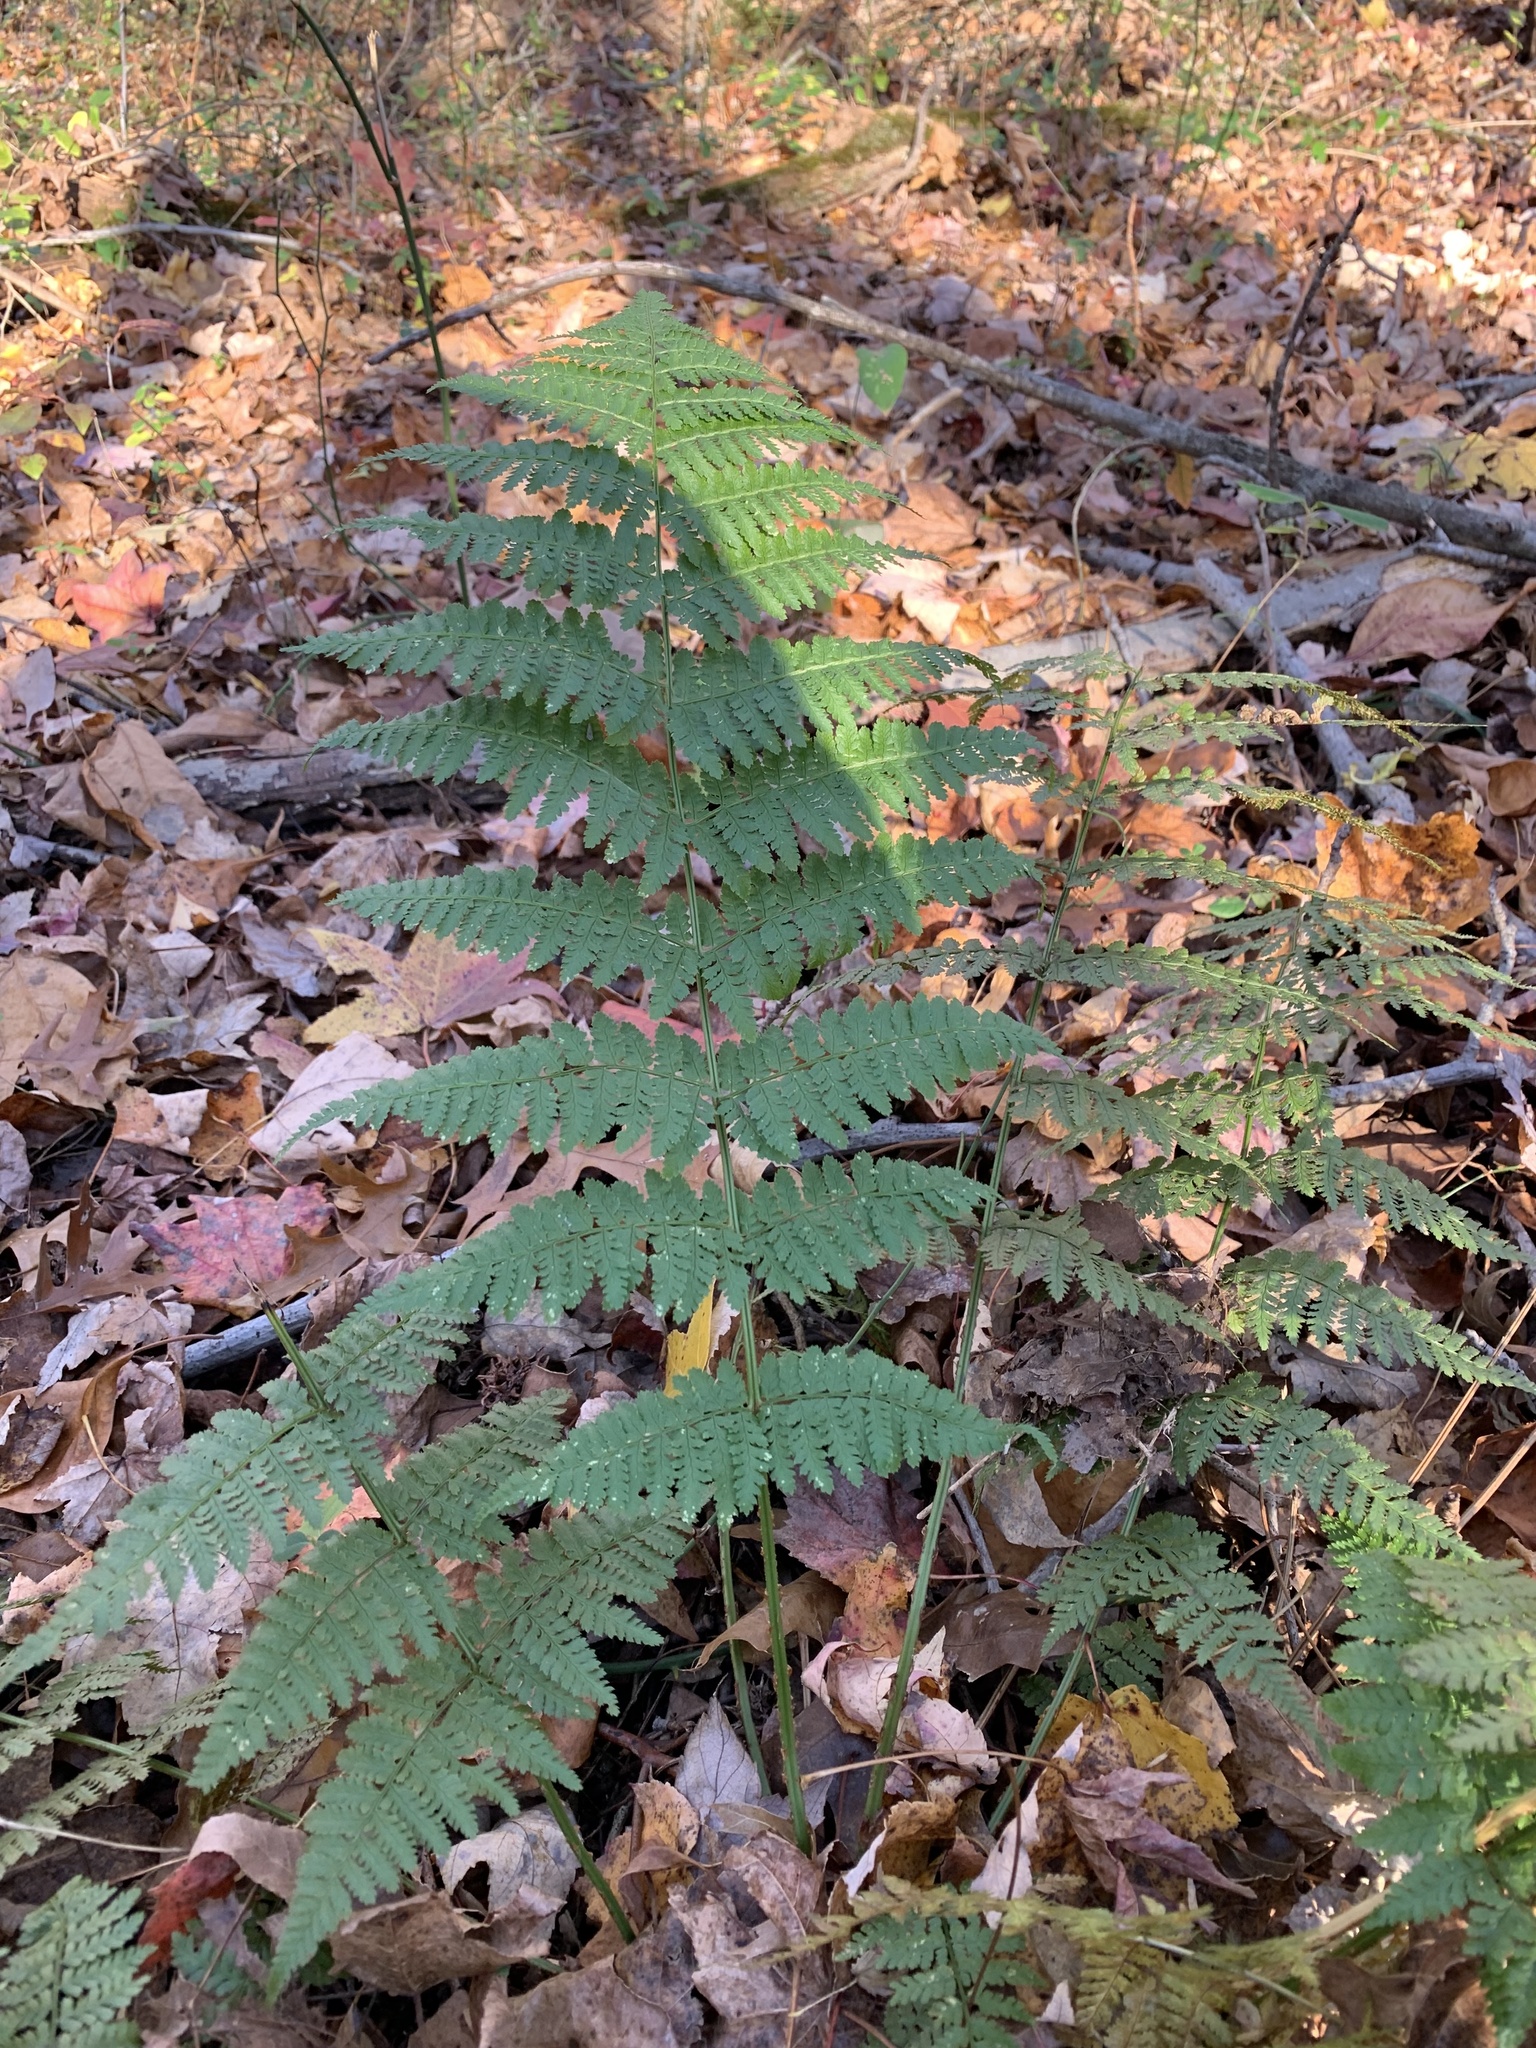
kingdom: Plantae
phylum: Tracheophyta
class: Polypodiopsida
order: Polypodiales
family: Dryopteridaceae
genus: Dryopteris
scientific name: Dryopteris intermedia
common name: Evergreen wood fern
